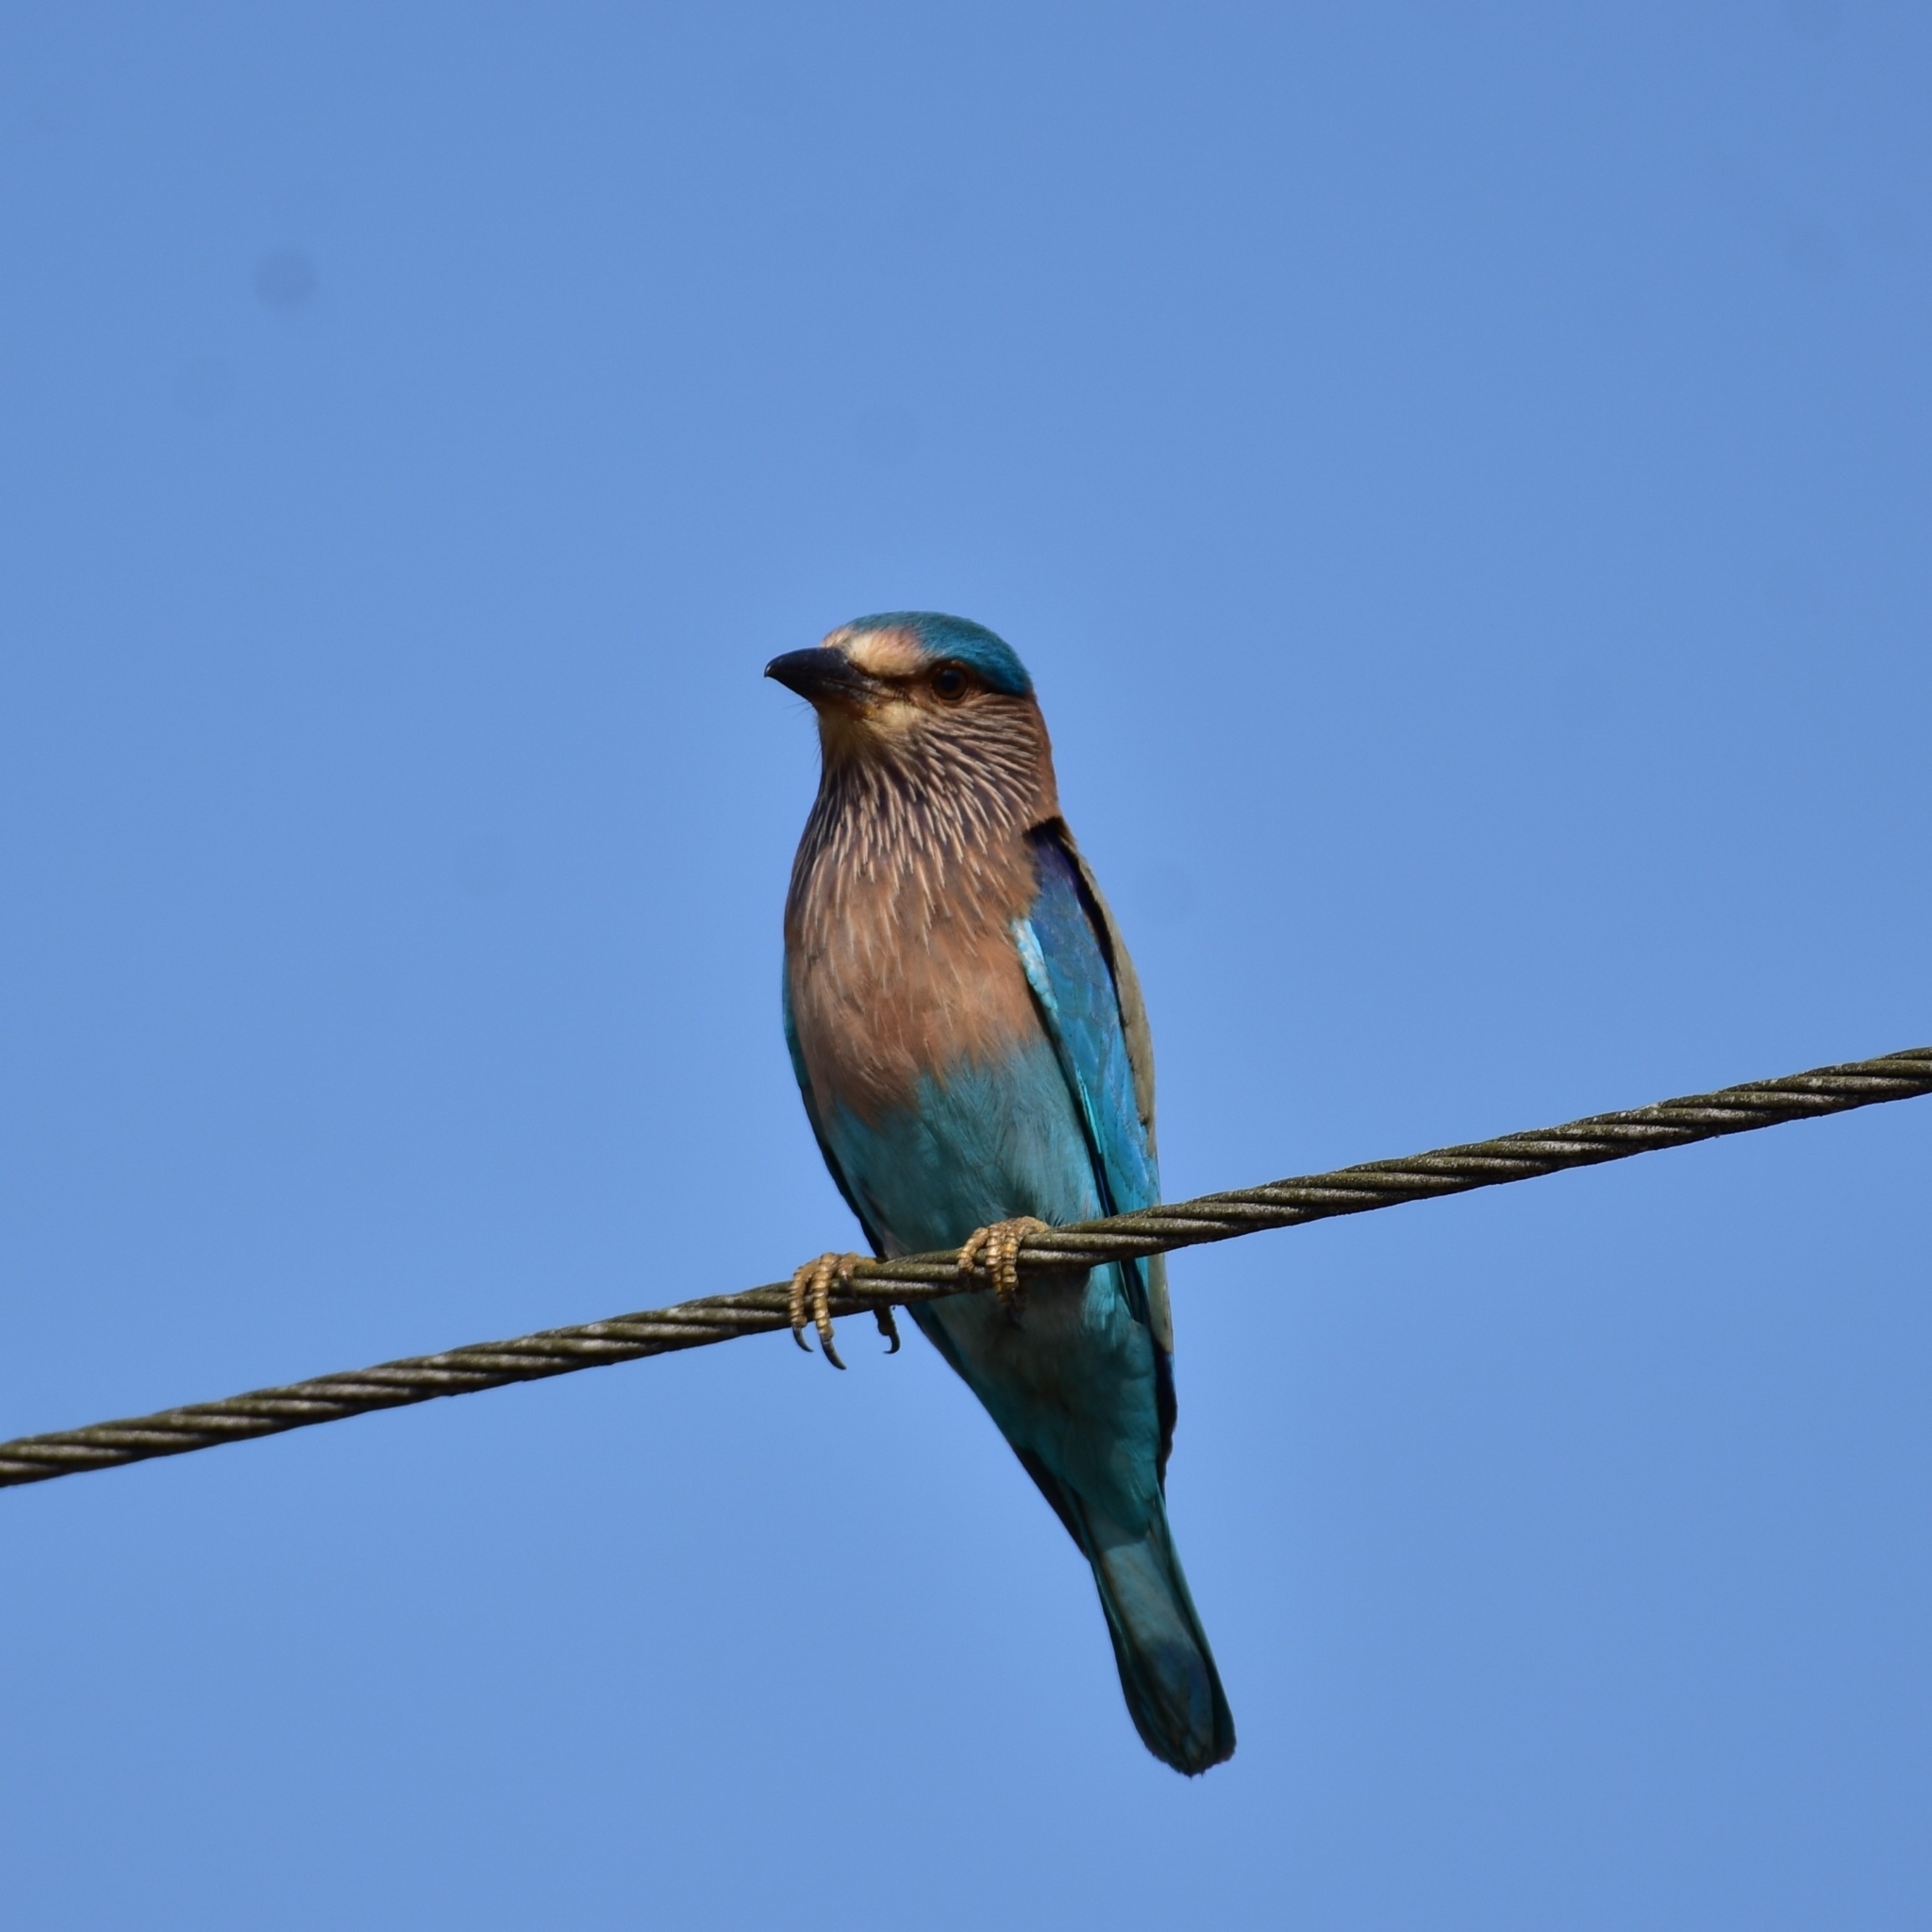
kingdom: Animalia
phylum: Chordata
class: Aves
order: Coraciiformes
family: Coraciidae
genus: Coracias
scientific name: Coracias benghalensis
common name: Indian roller
